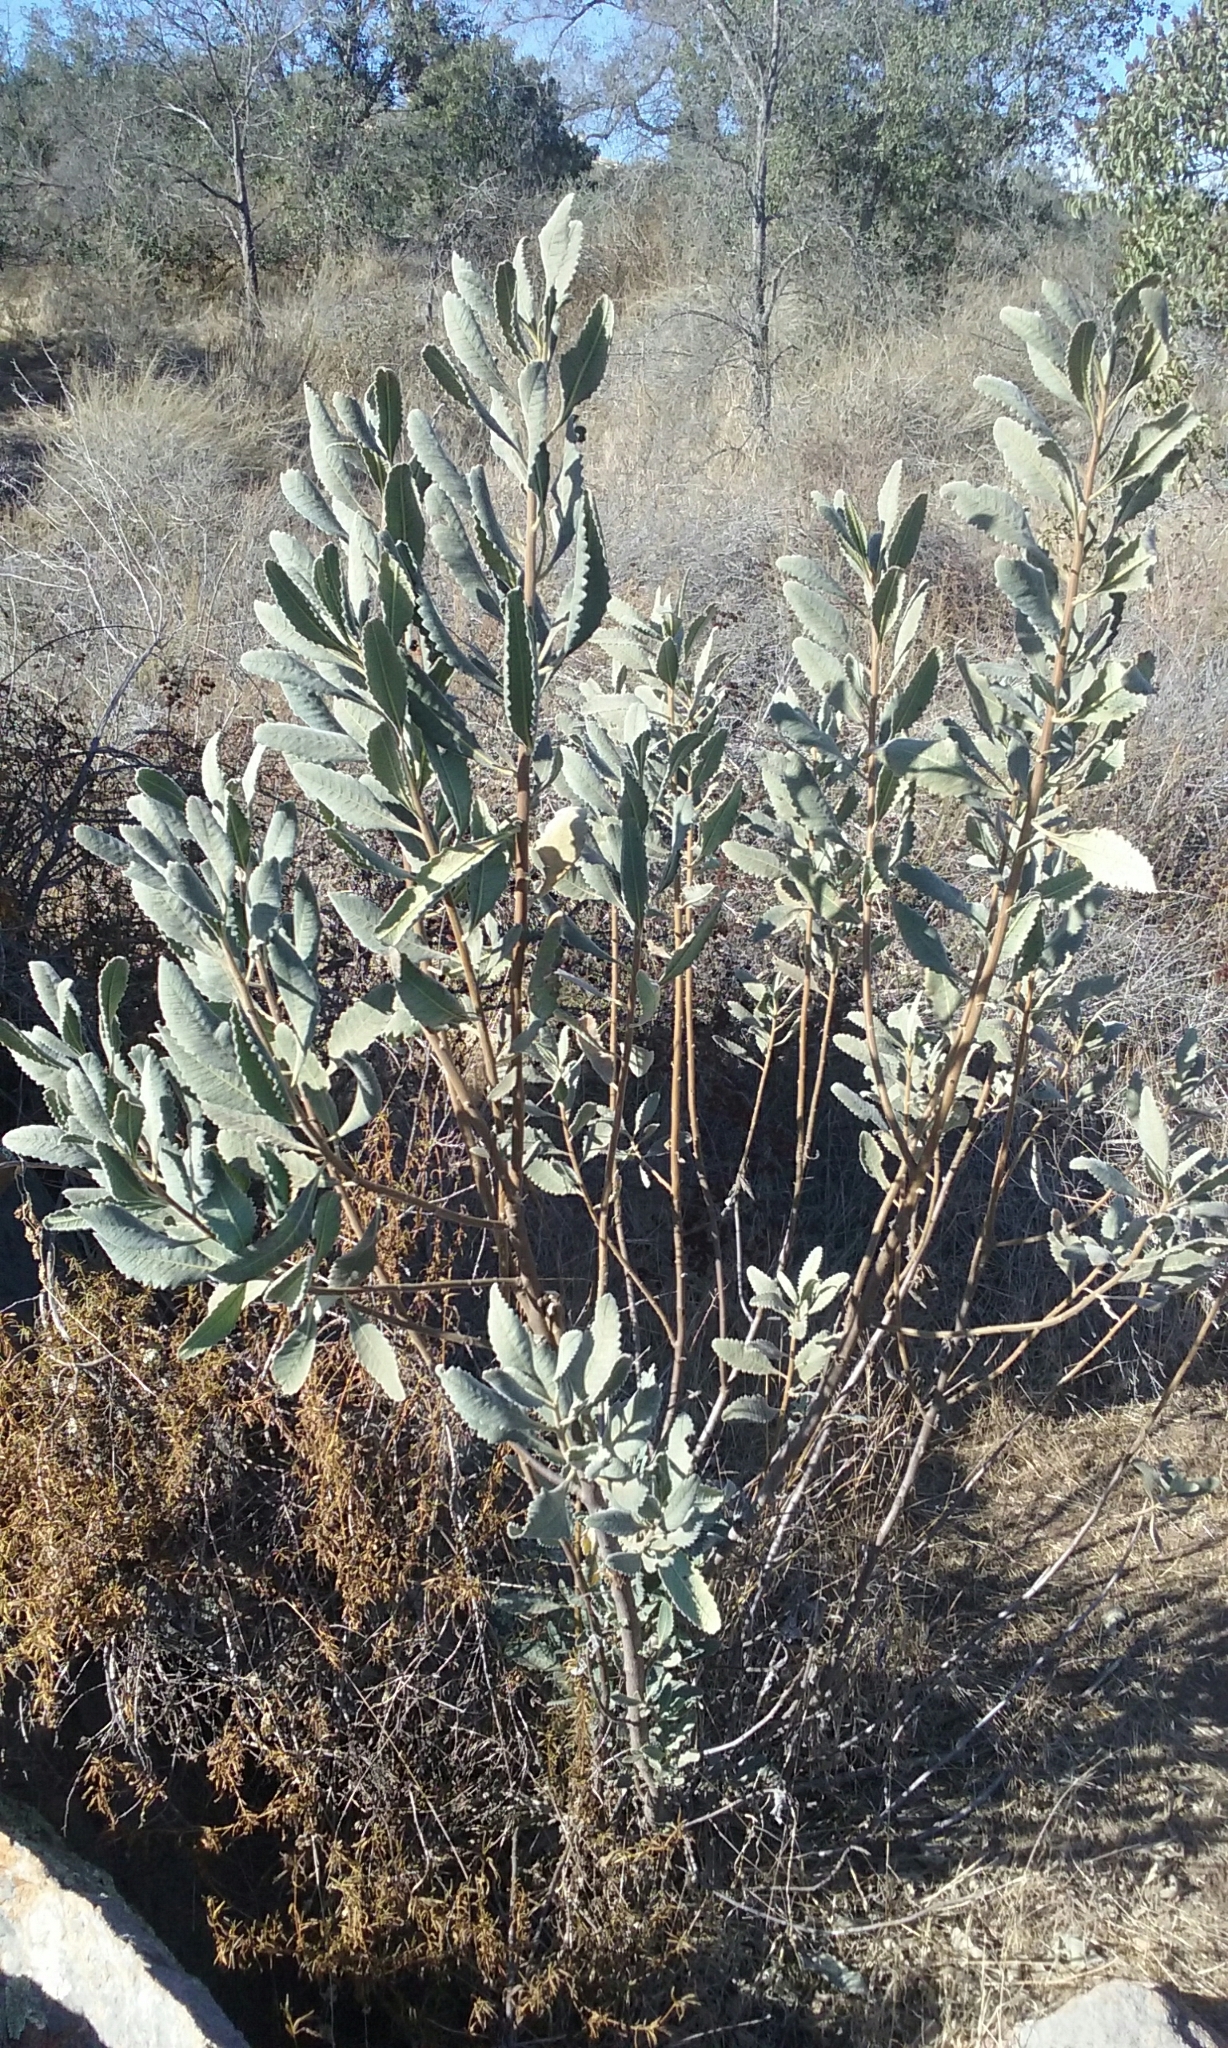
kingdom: Plantae
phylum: Tracheophyta
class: Magnoliopsida
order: Boraginales
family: Namaceae
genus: Eriodictyon
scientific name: Eriodictyon crassifolium
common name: Thick-leaf yerba-santa
